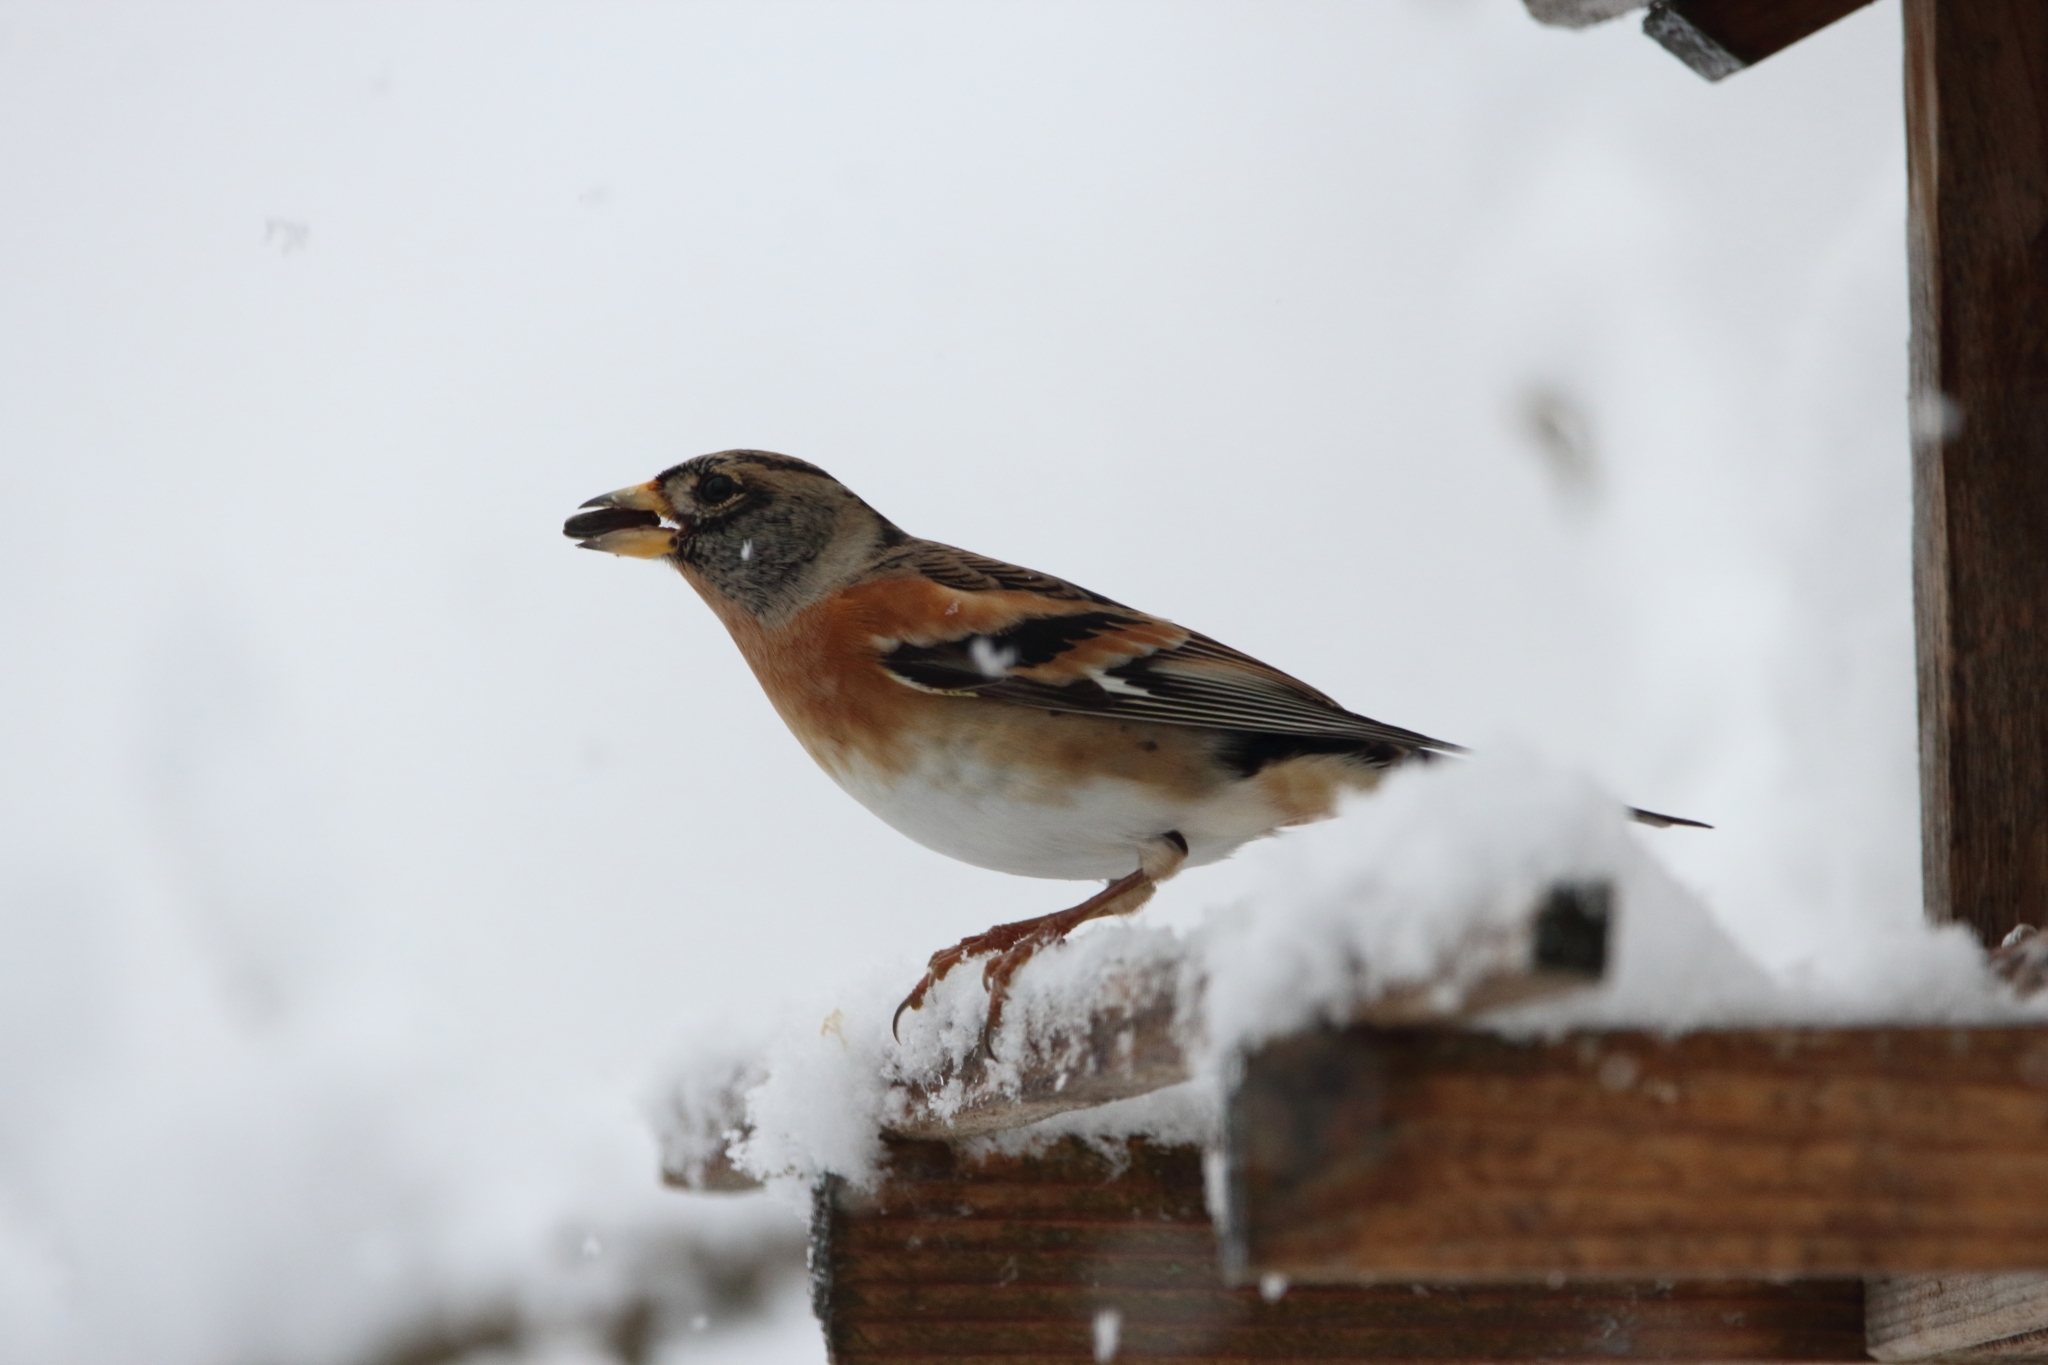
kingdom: Animalia
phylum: Chordata
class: Aves
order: Passeriformes
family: Fringillidae
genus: Fringilla
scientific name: Fringilla montifringilla
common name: Brambling
